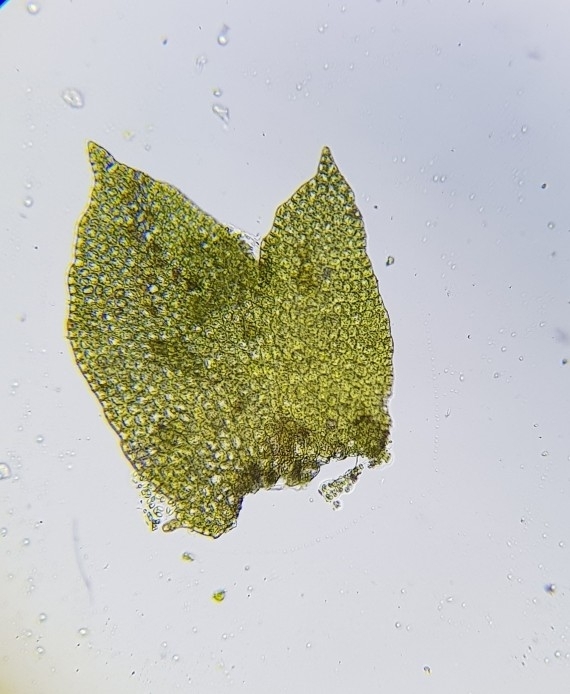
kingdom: Plantae
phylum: Marchantiophyta
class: Jungermanniopsida
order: Jungermanniales
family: Anastrophyllaceae
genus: Barbilophozia
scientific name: Barbilophozia hatcheri
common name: Hatcher s pawwort
